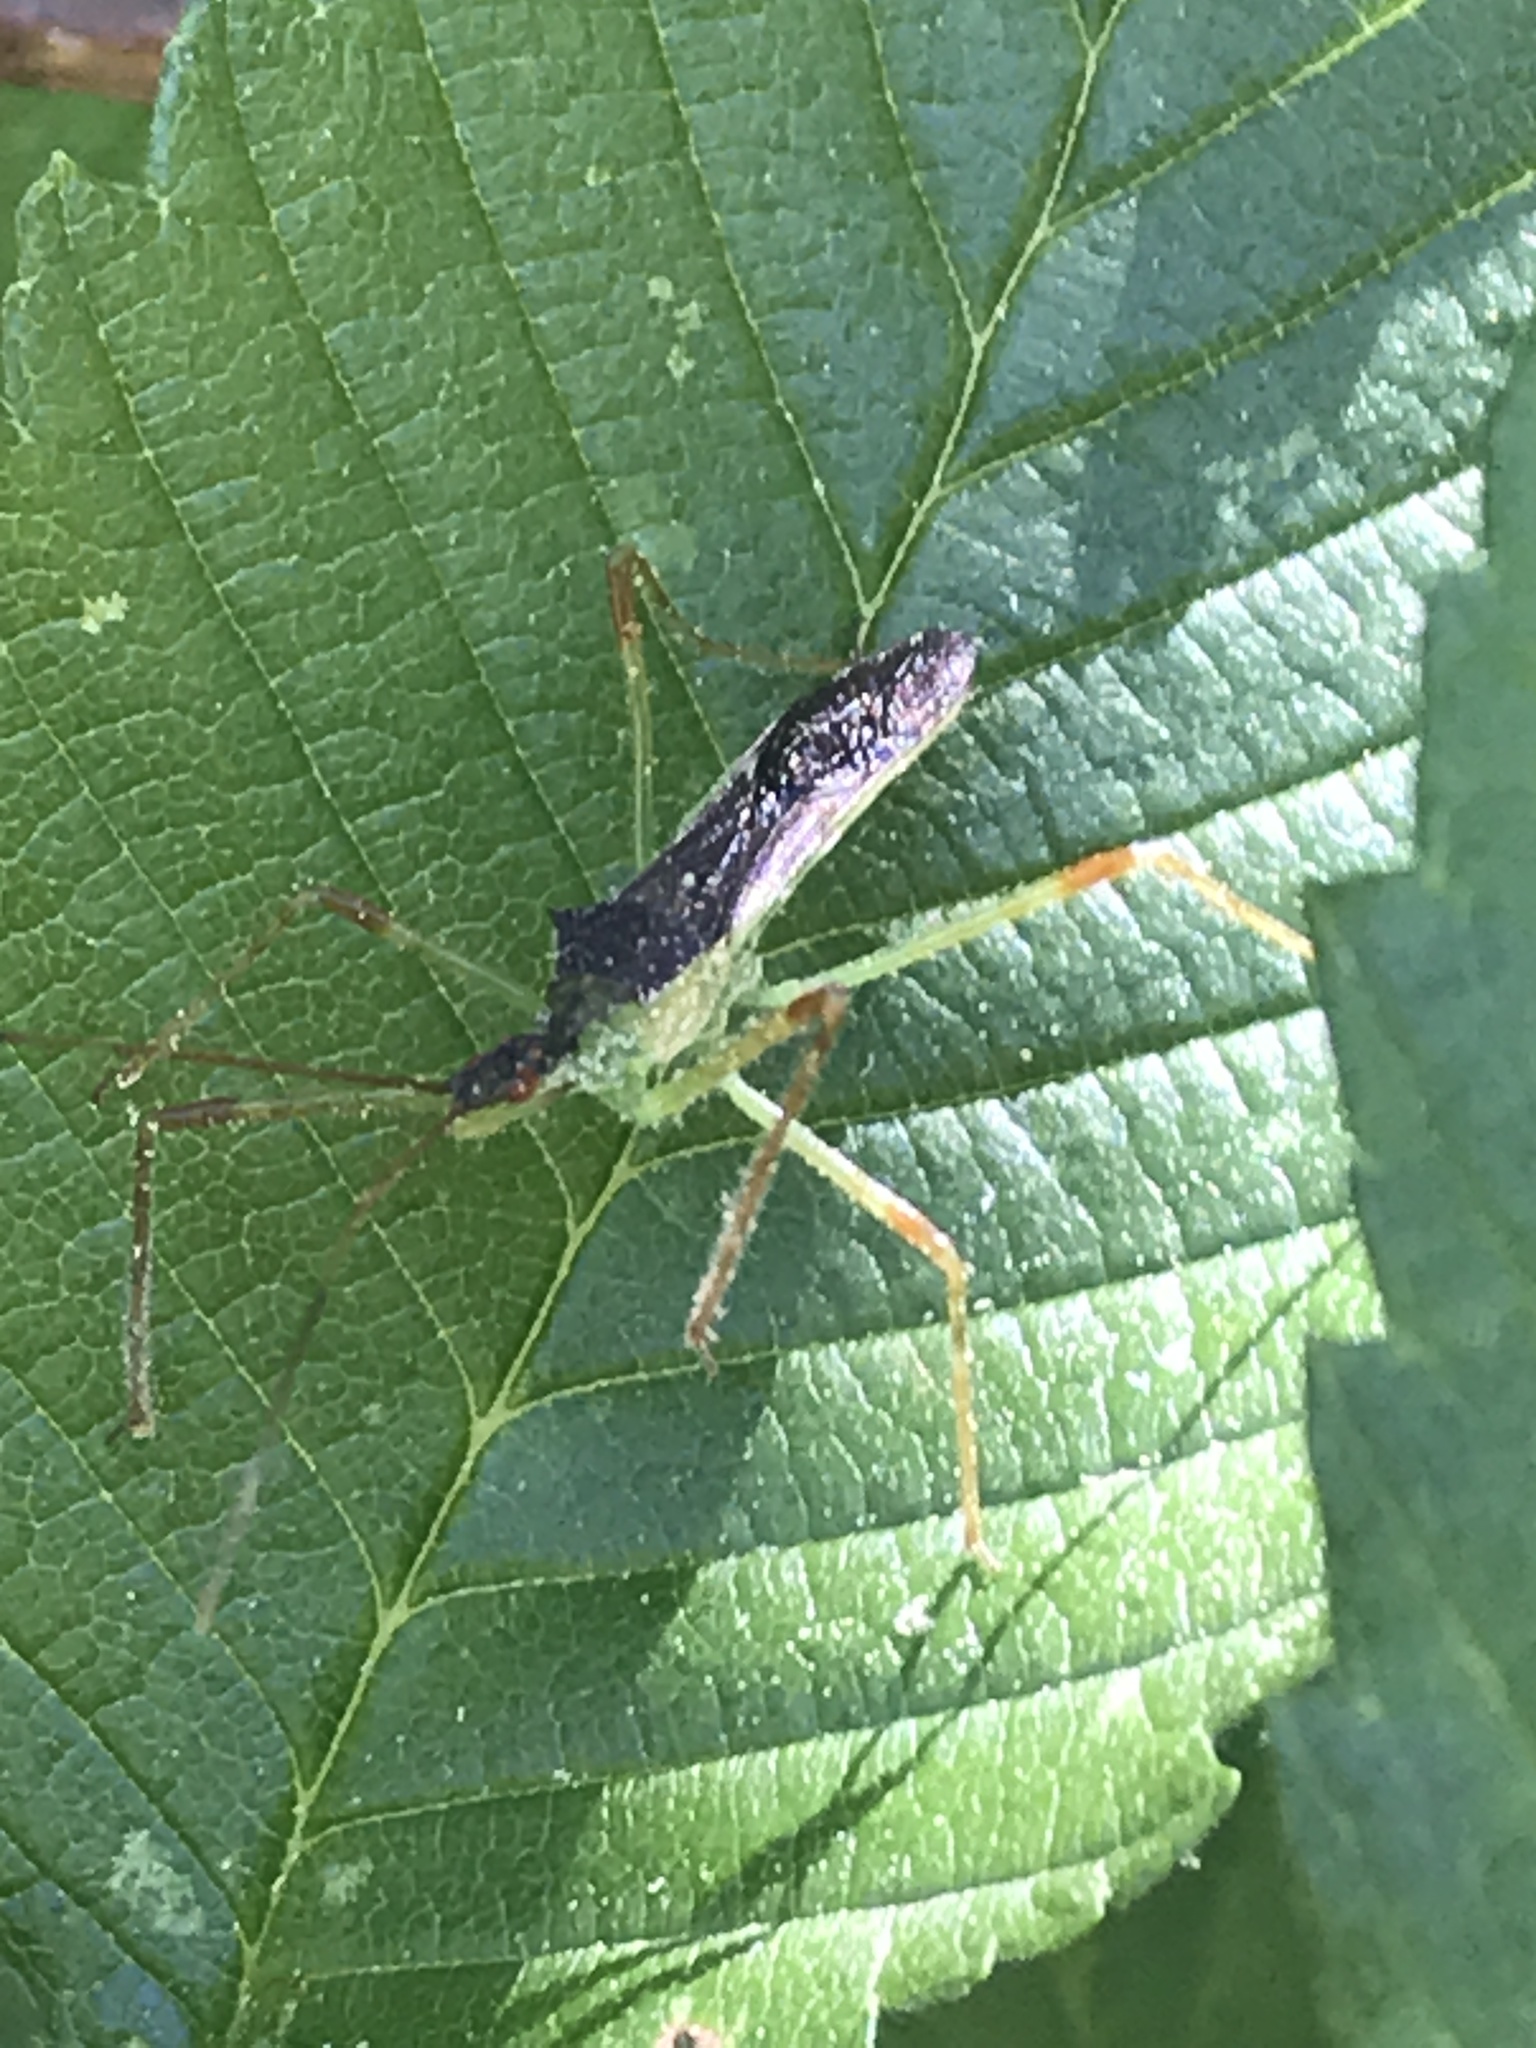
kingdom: Animalia
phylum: Arthropoda
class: Insecta
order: Hemiptera
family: Reduviidae
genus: Zelus
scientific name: Zelus luridus
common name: Pale green assassin bug
